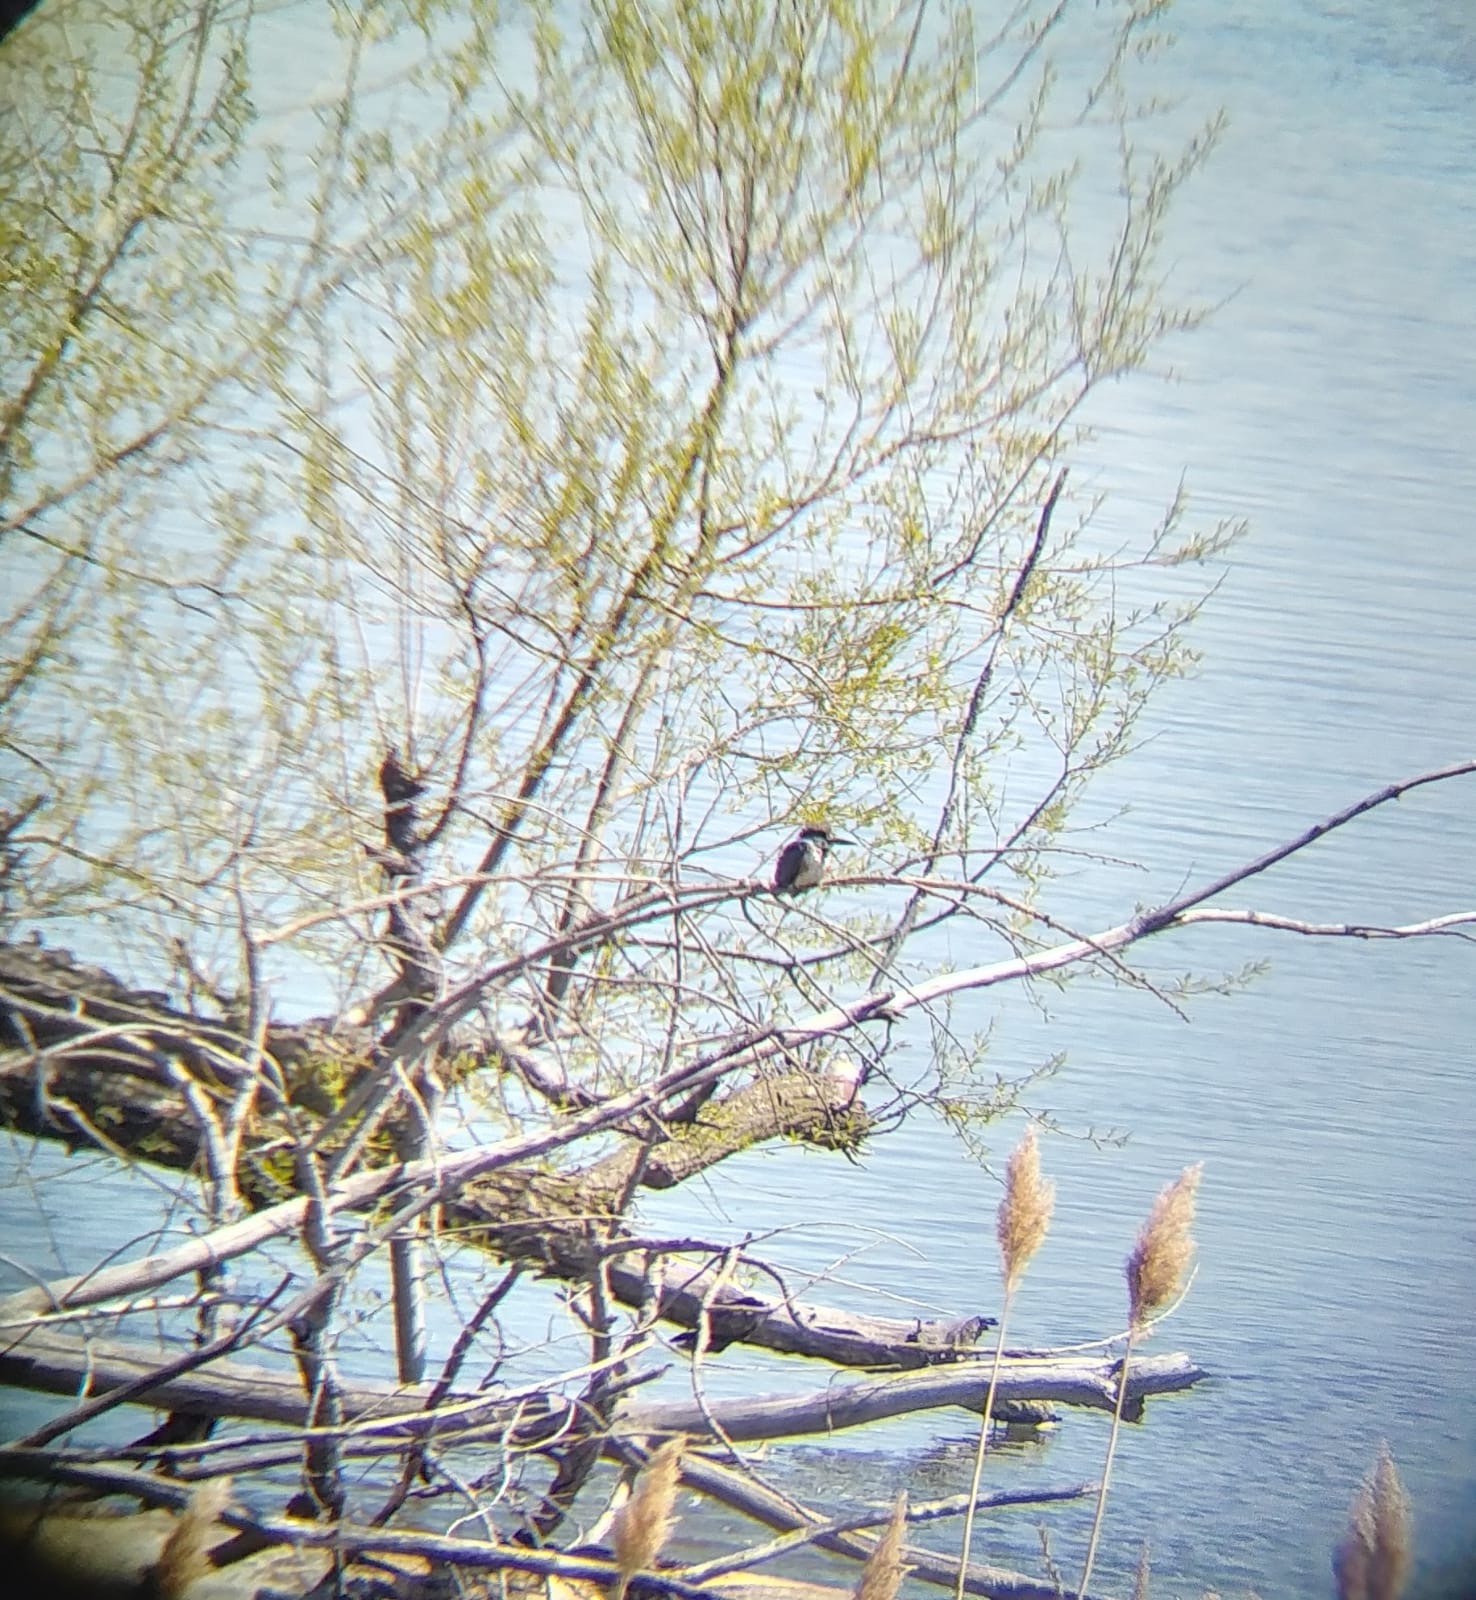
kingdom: Animalia
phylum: Chordata
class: Aves
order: Coraciiformes
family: Alcedinidae
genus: Megaceryle
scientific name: Megaceryle alcyon
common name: Belted kingfisher
